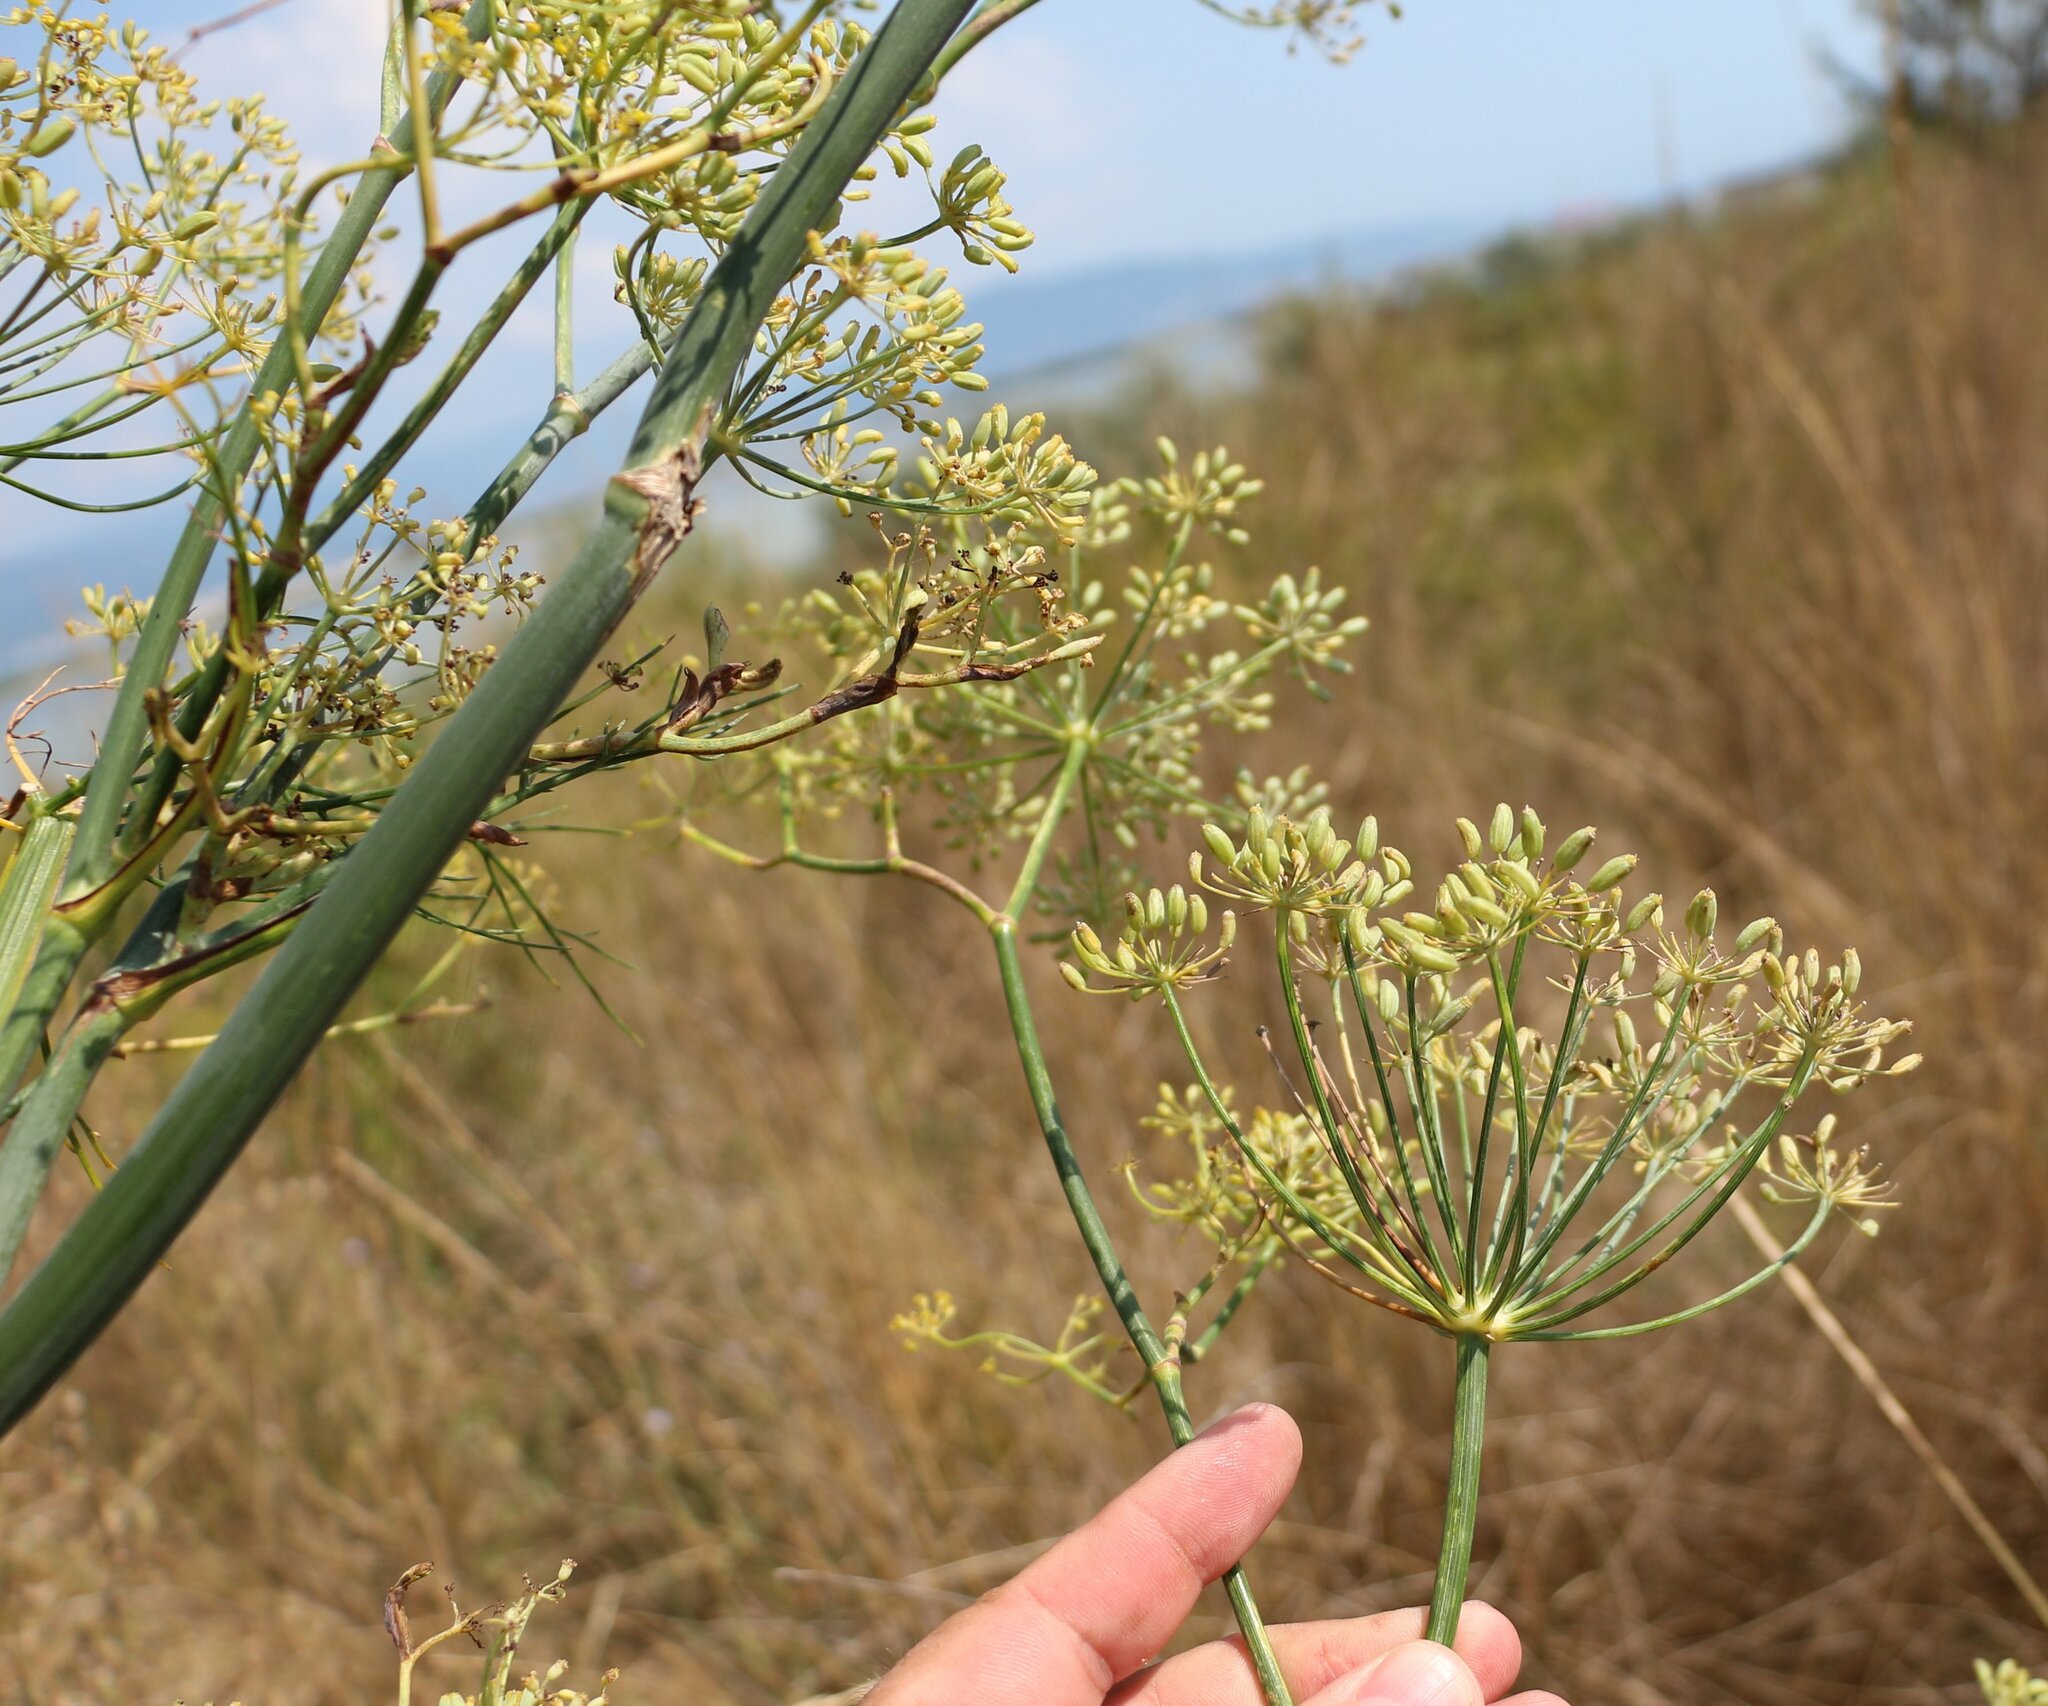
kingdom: Plantae
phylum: Tracheophyta
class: Magnoliopsida
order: Apiales
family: Apiaceae
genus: Foeniculum
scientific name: Foeniculum vulgare
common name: Fennel
